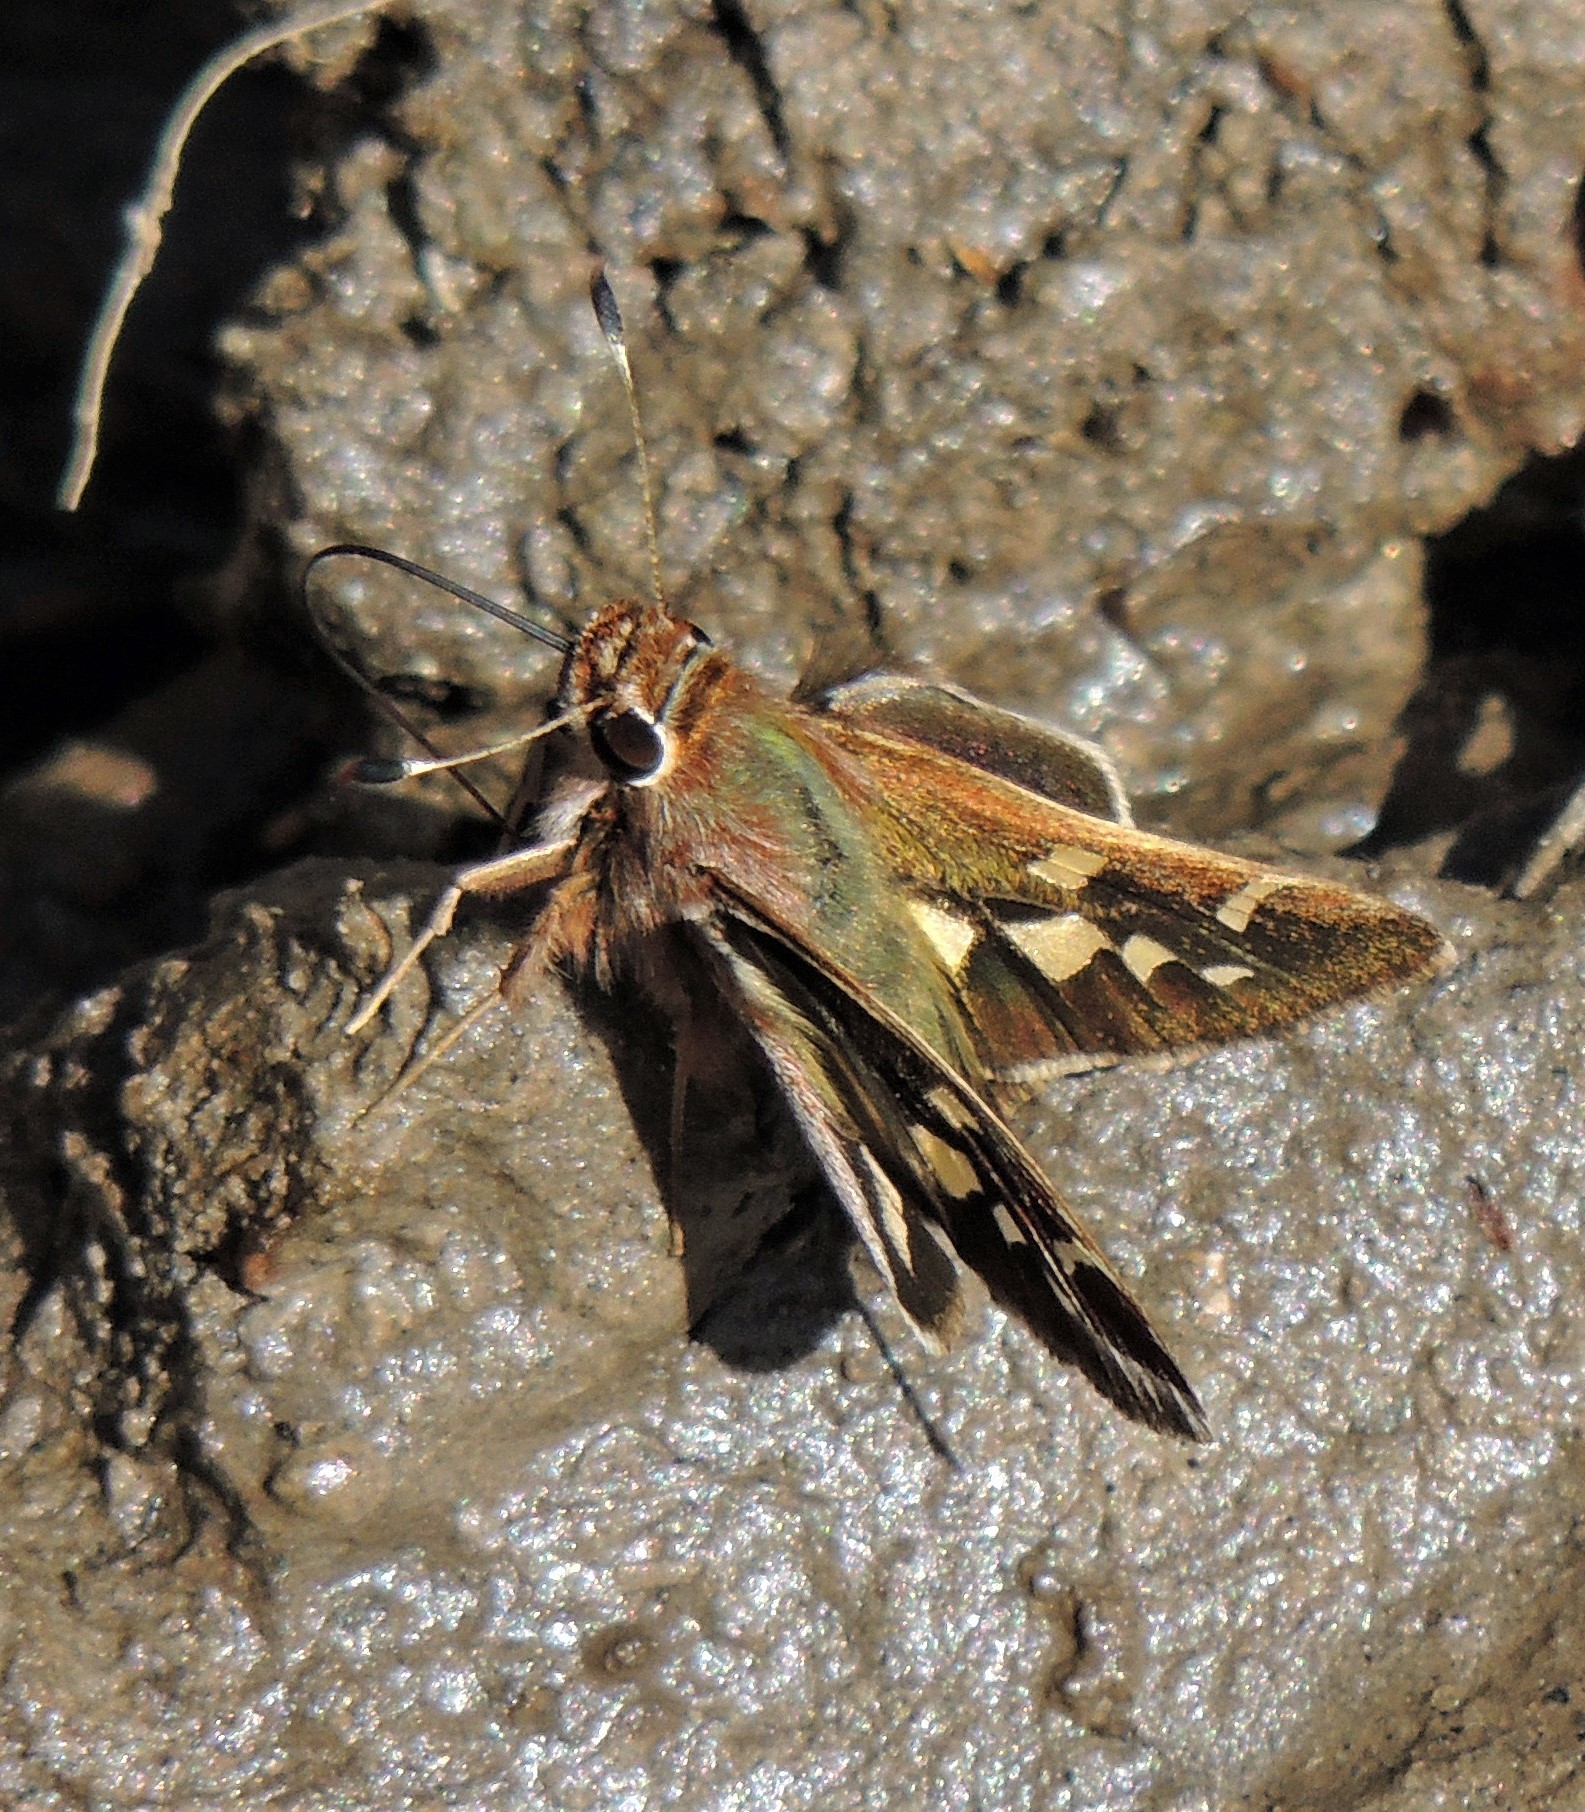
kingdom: Animalia
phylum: Arthropoda
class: Insecta
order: Lepidoptera
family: Hesperiidae
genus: Thespieus
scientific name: Thespieus argentina
